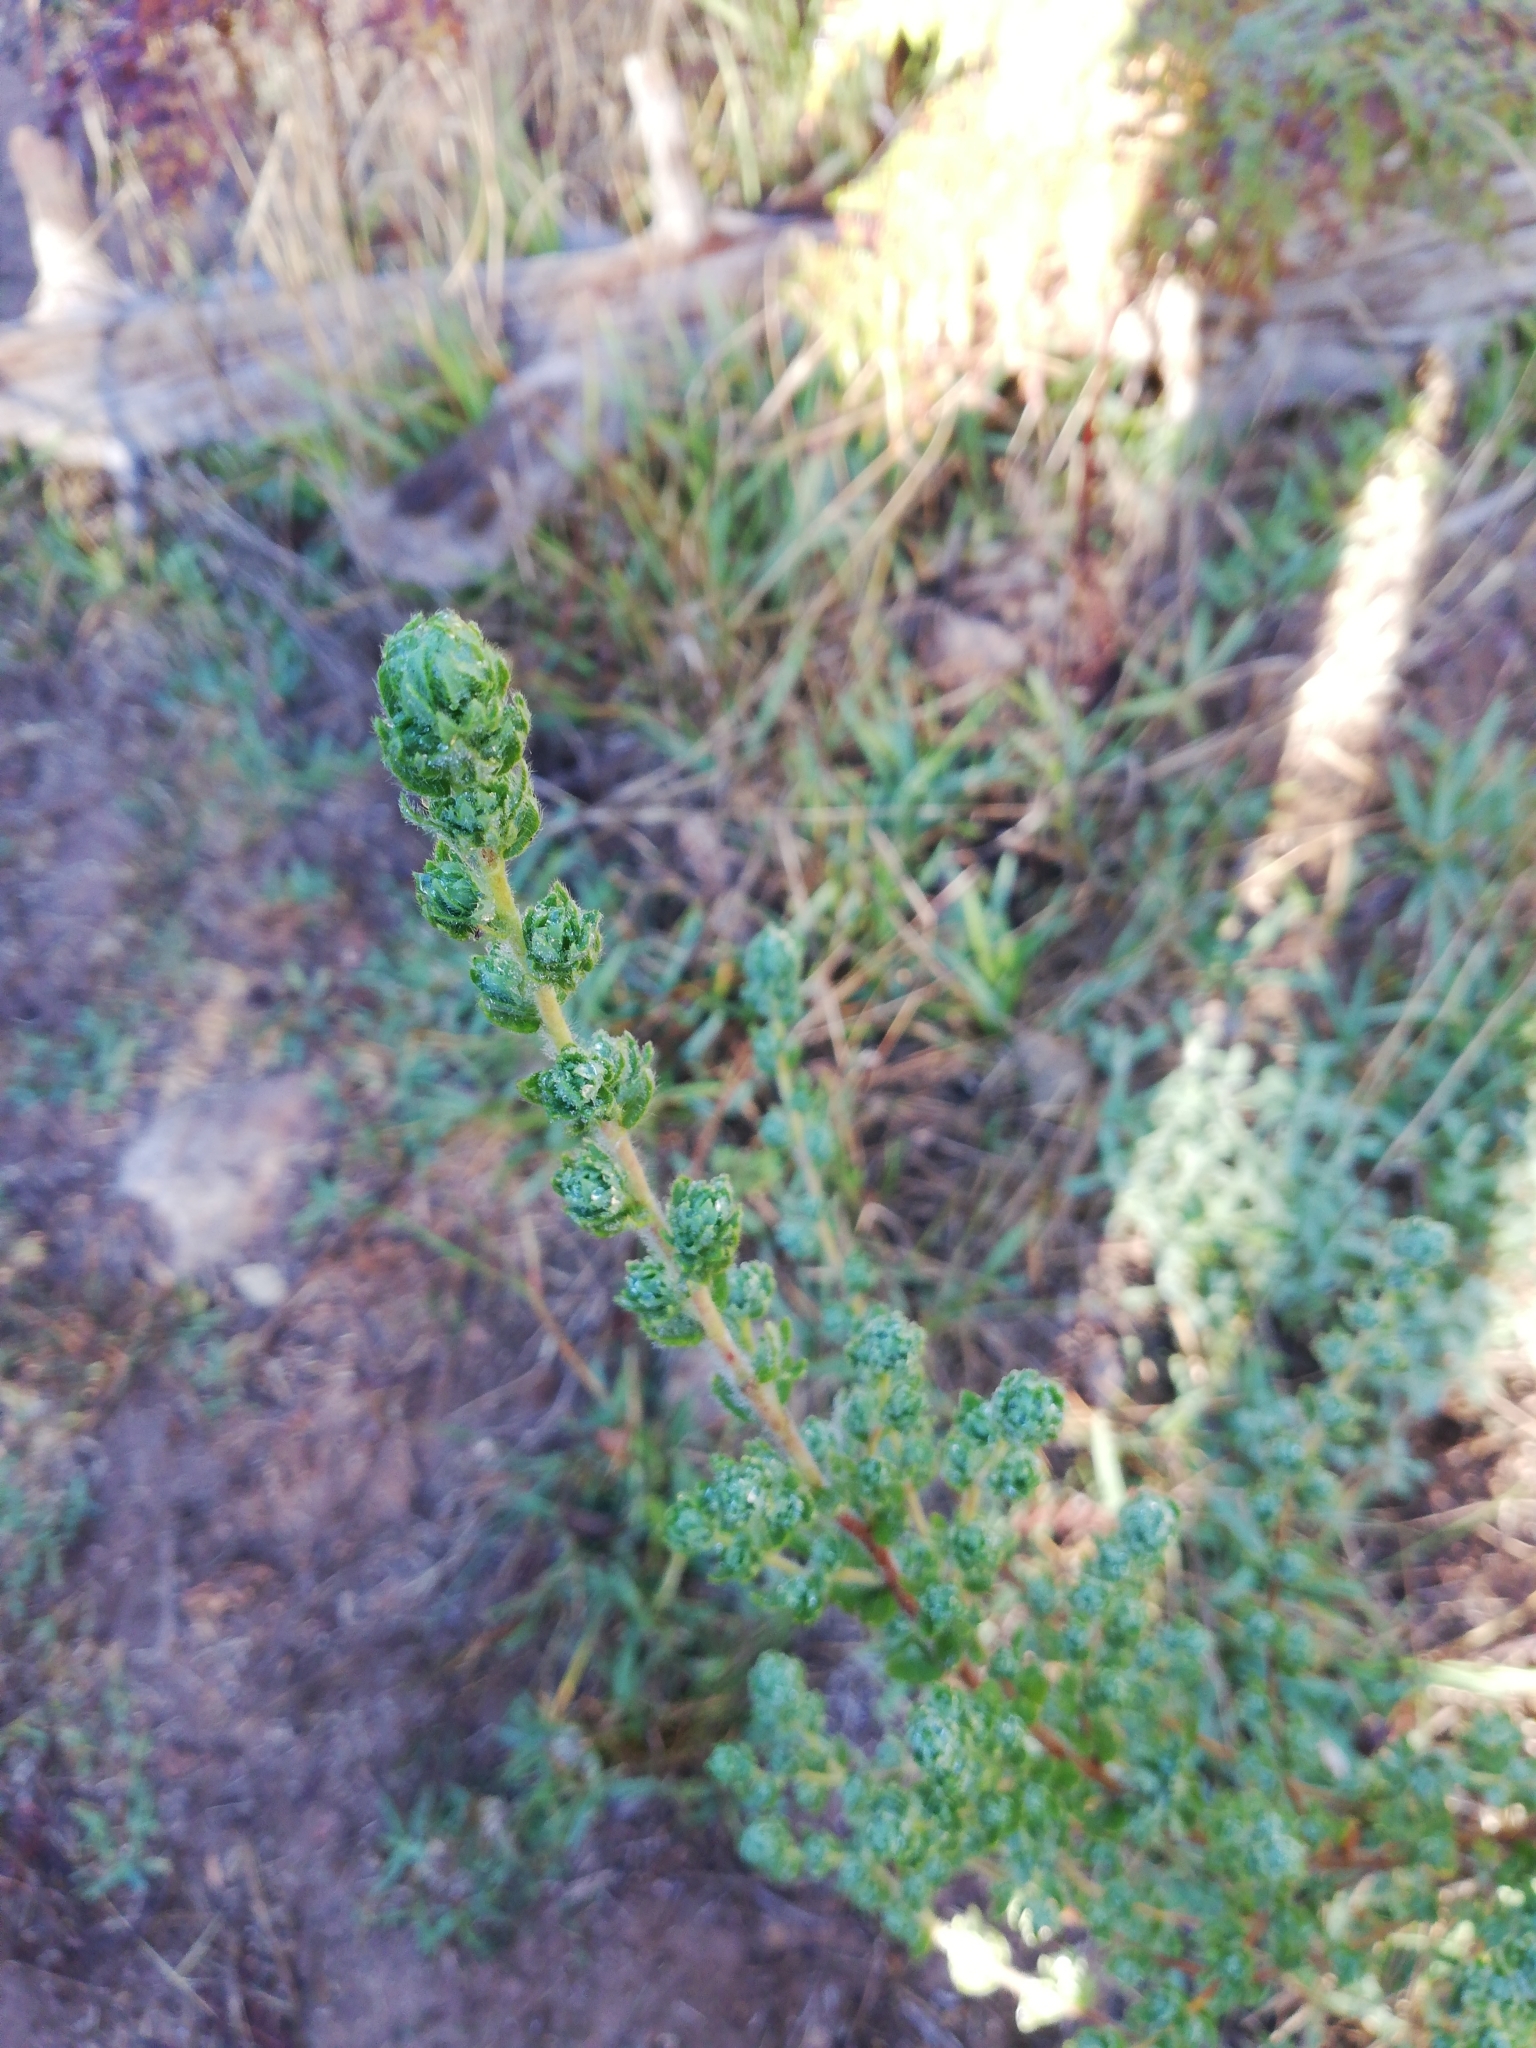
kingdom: Plantae
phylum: Tracheophyta
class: Magnoliopsida
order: Rosales
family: Rosaceae
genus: Cliffortia
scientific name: Cliffortia polygonifolia
